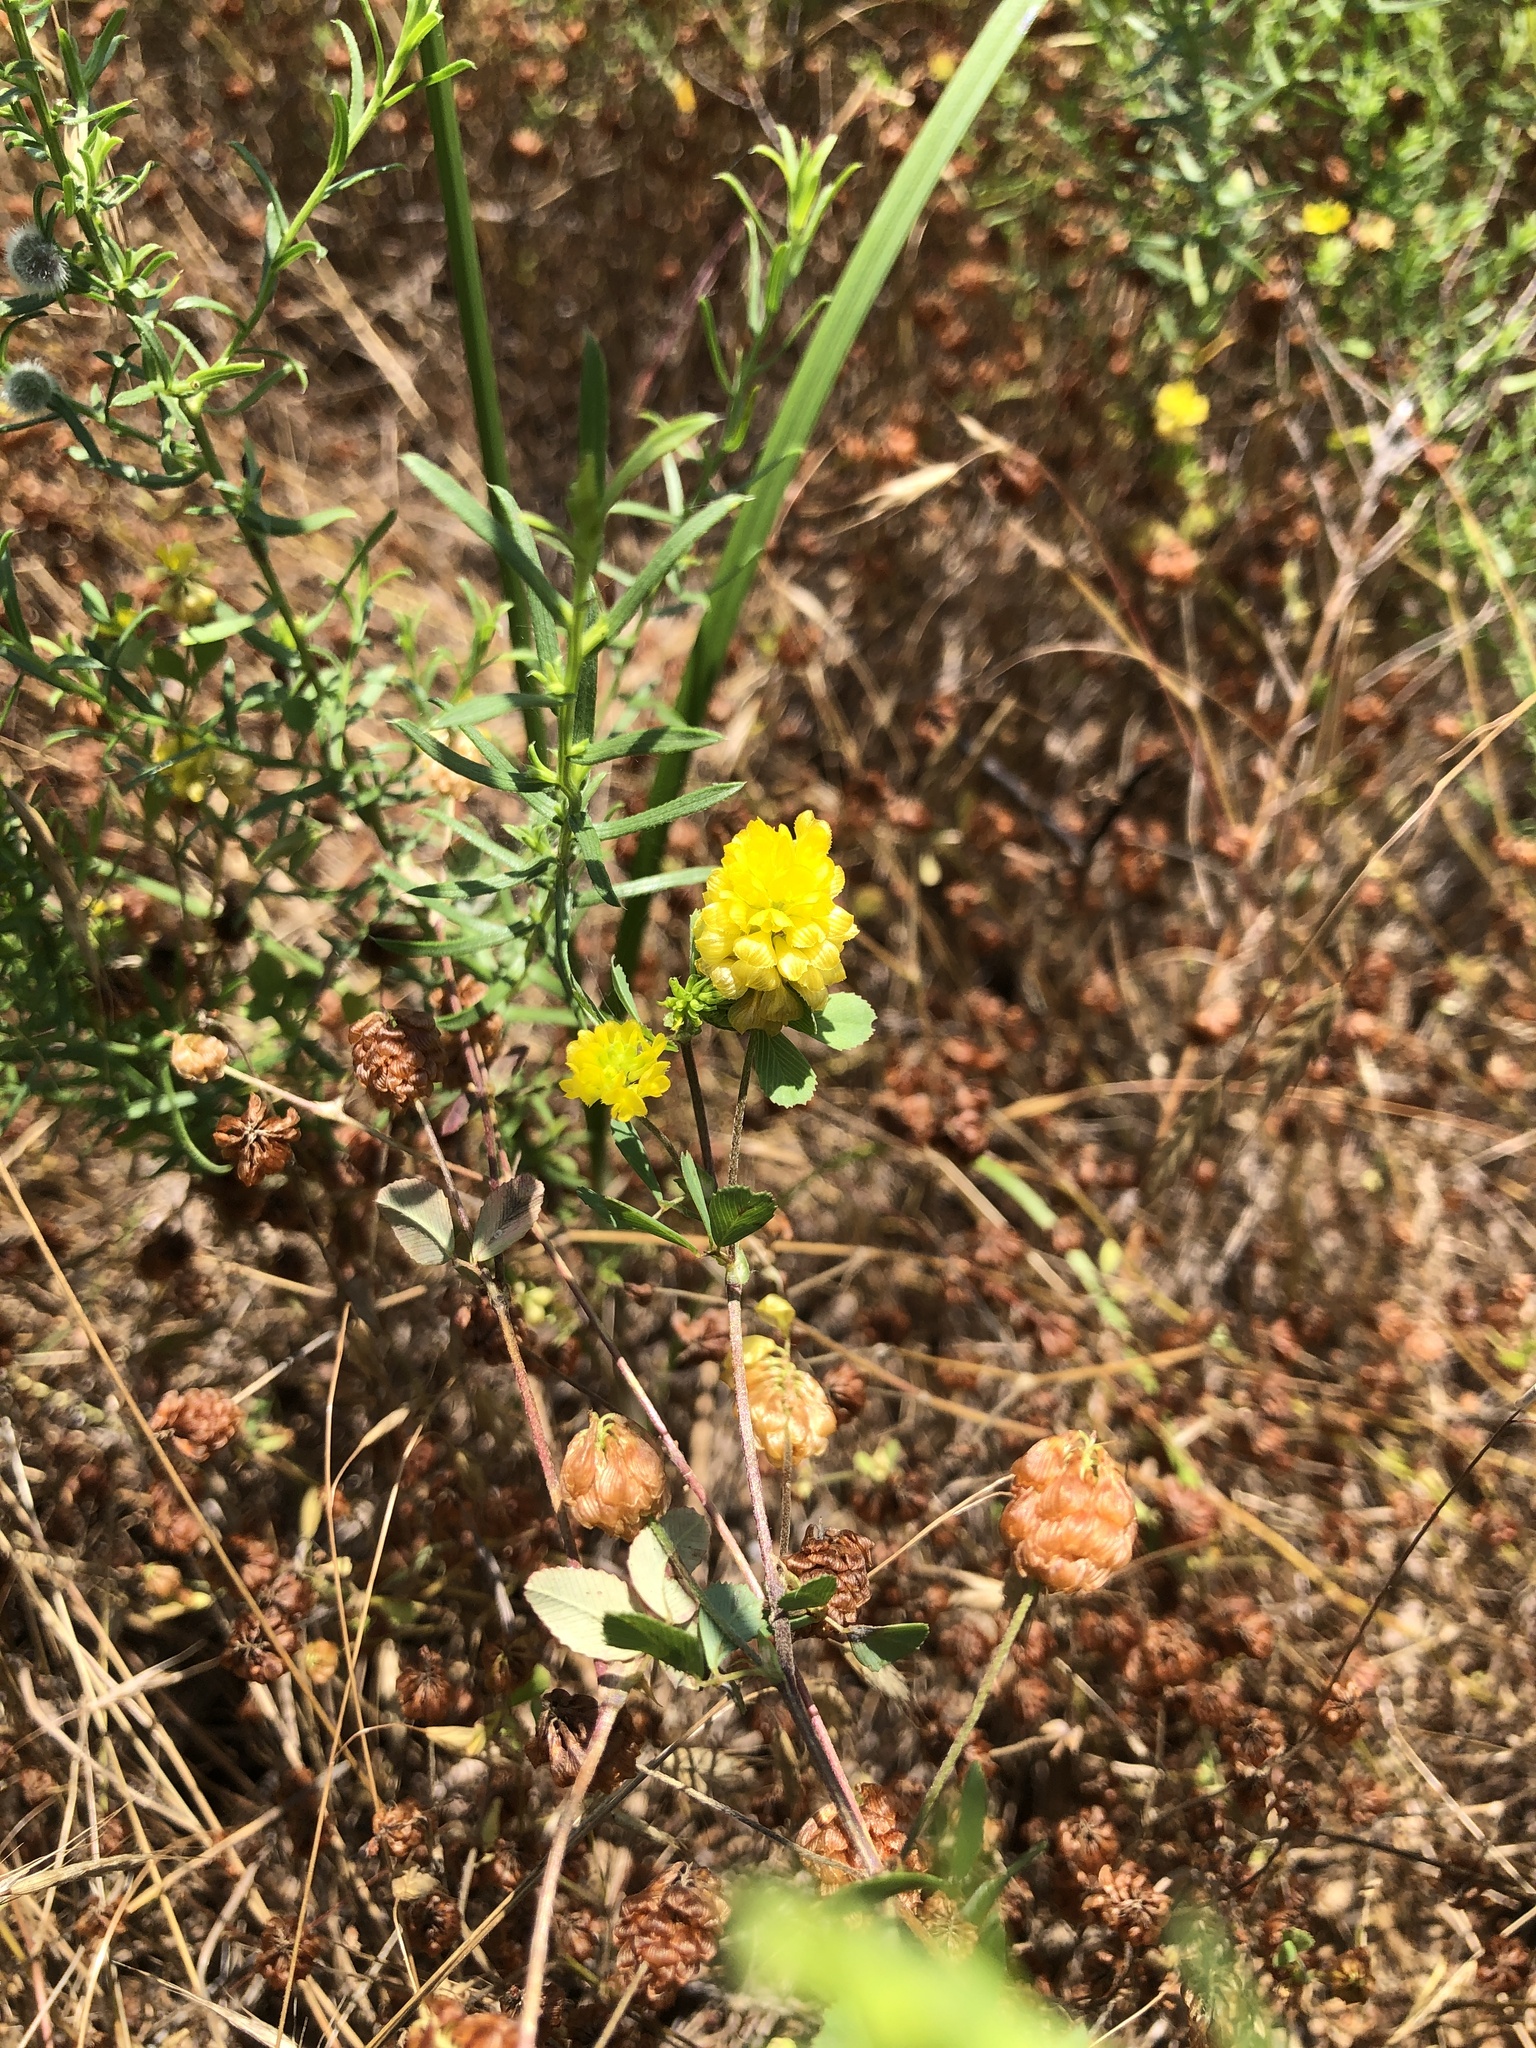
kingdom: Plantae
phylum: Tracheophyta
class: Magnoliopsida
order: Fabales
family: Fabaceae
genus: Trifolium
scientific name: Trifolium campestre
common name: Field clover
